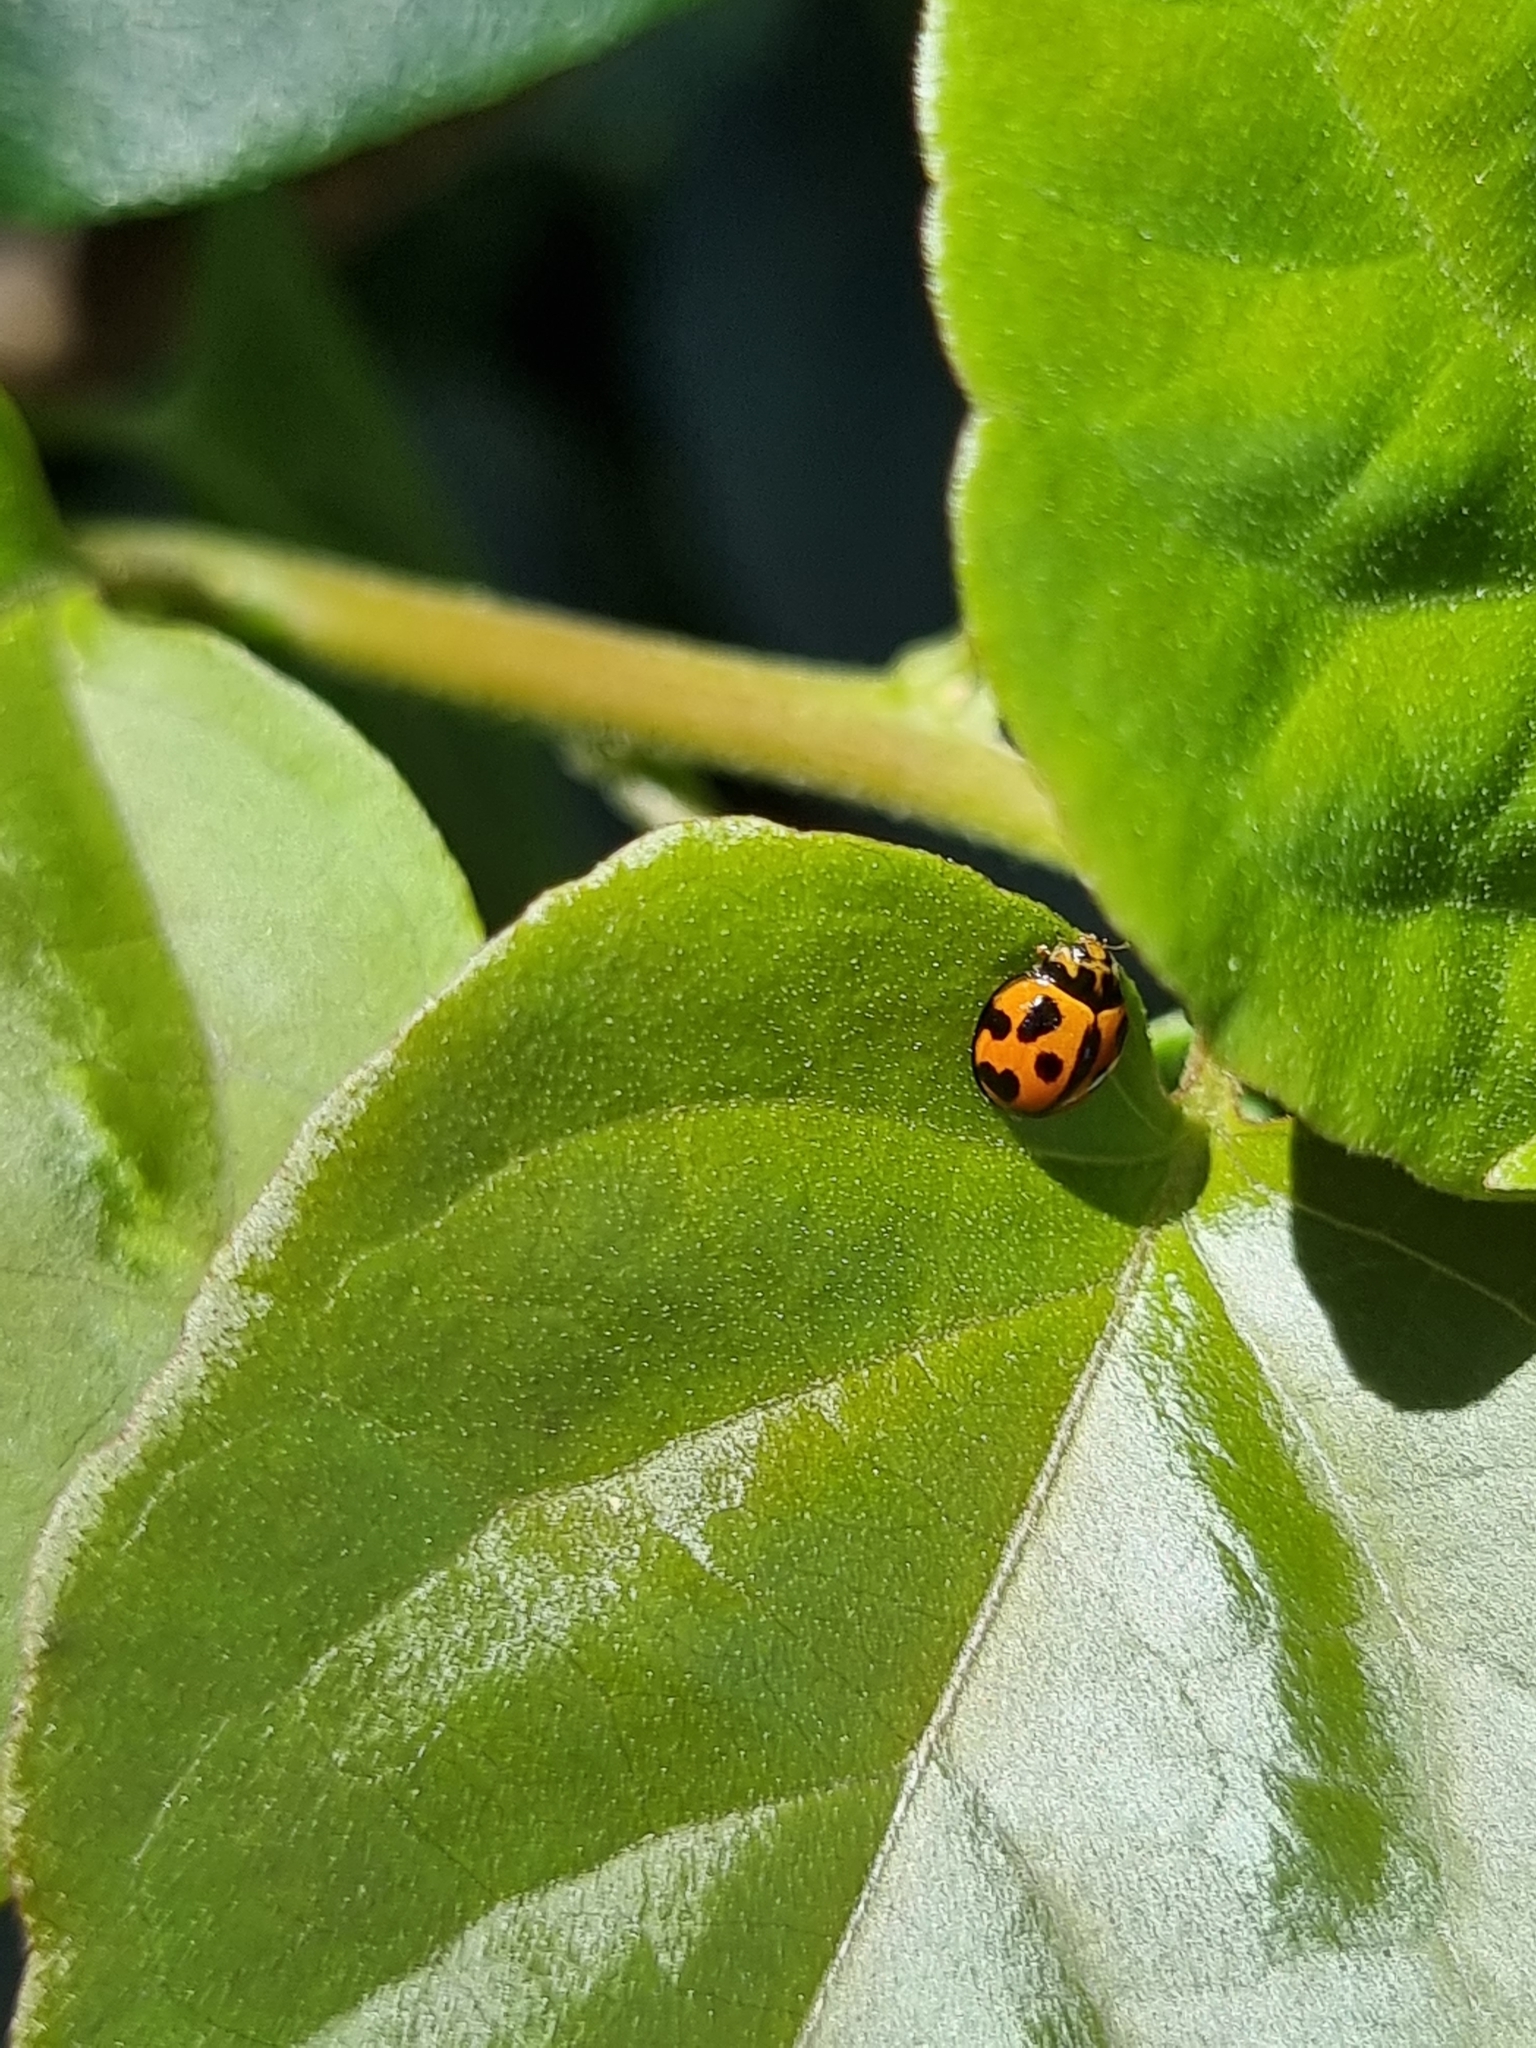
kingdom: Animalia
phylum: Arthropoda
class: Insecta
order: Coleoptera
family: Coccinellidae
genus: Coelophora
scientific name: Coelophora inaequalis
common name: Common australian lady beetle
